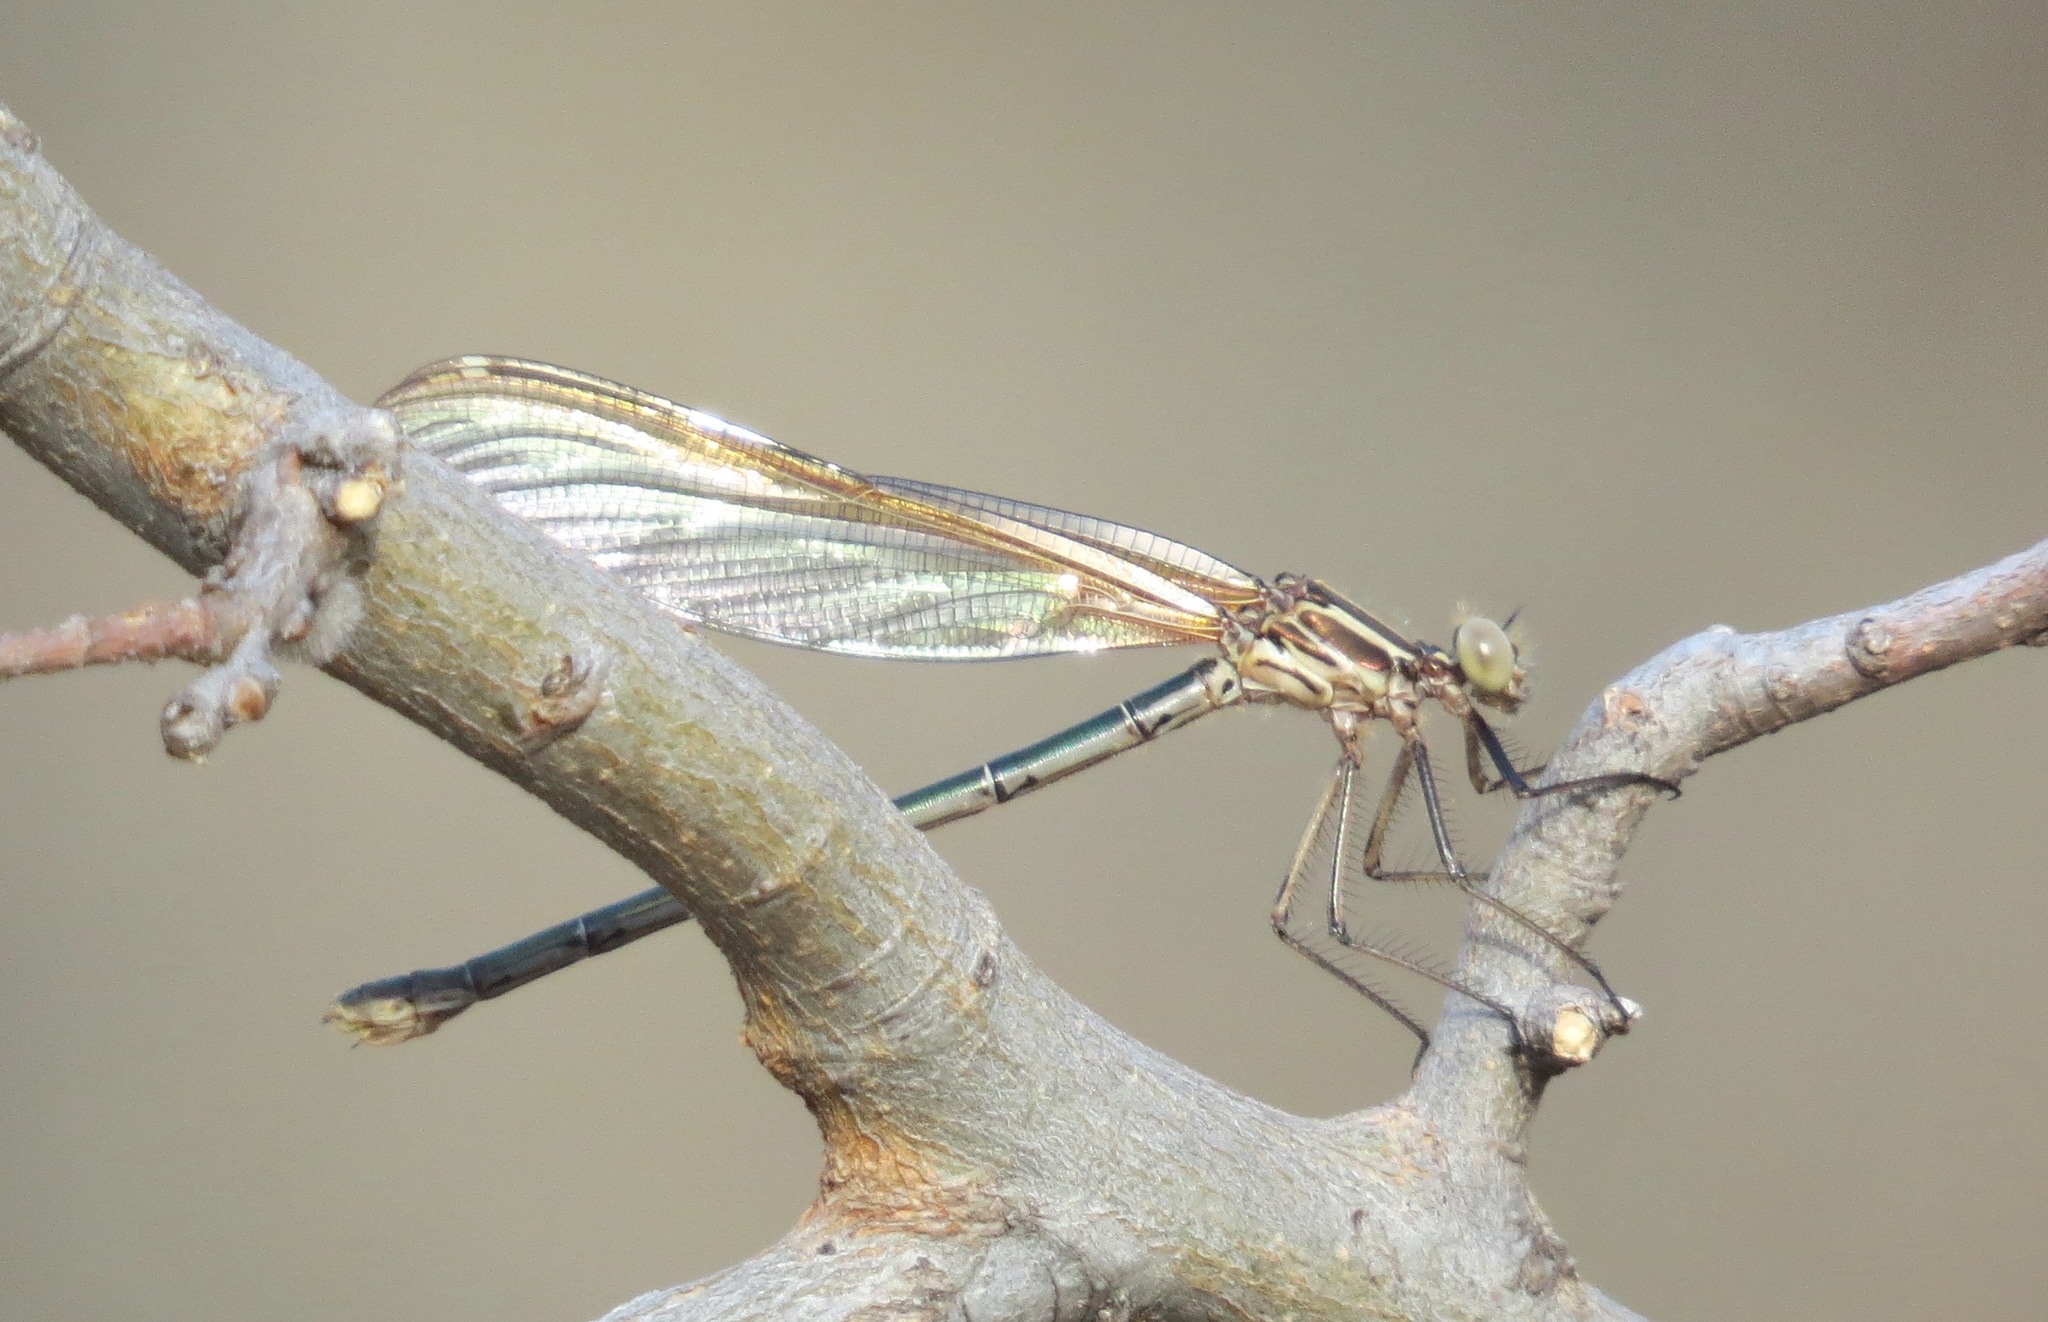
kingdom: Animalia
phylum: Arthropoda
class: Insecta
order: Odonata
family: Calopterygidae
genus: Hetaerina
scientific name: Hetaerina americana
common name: American rubyspot
